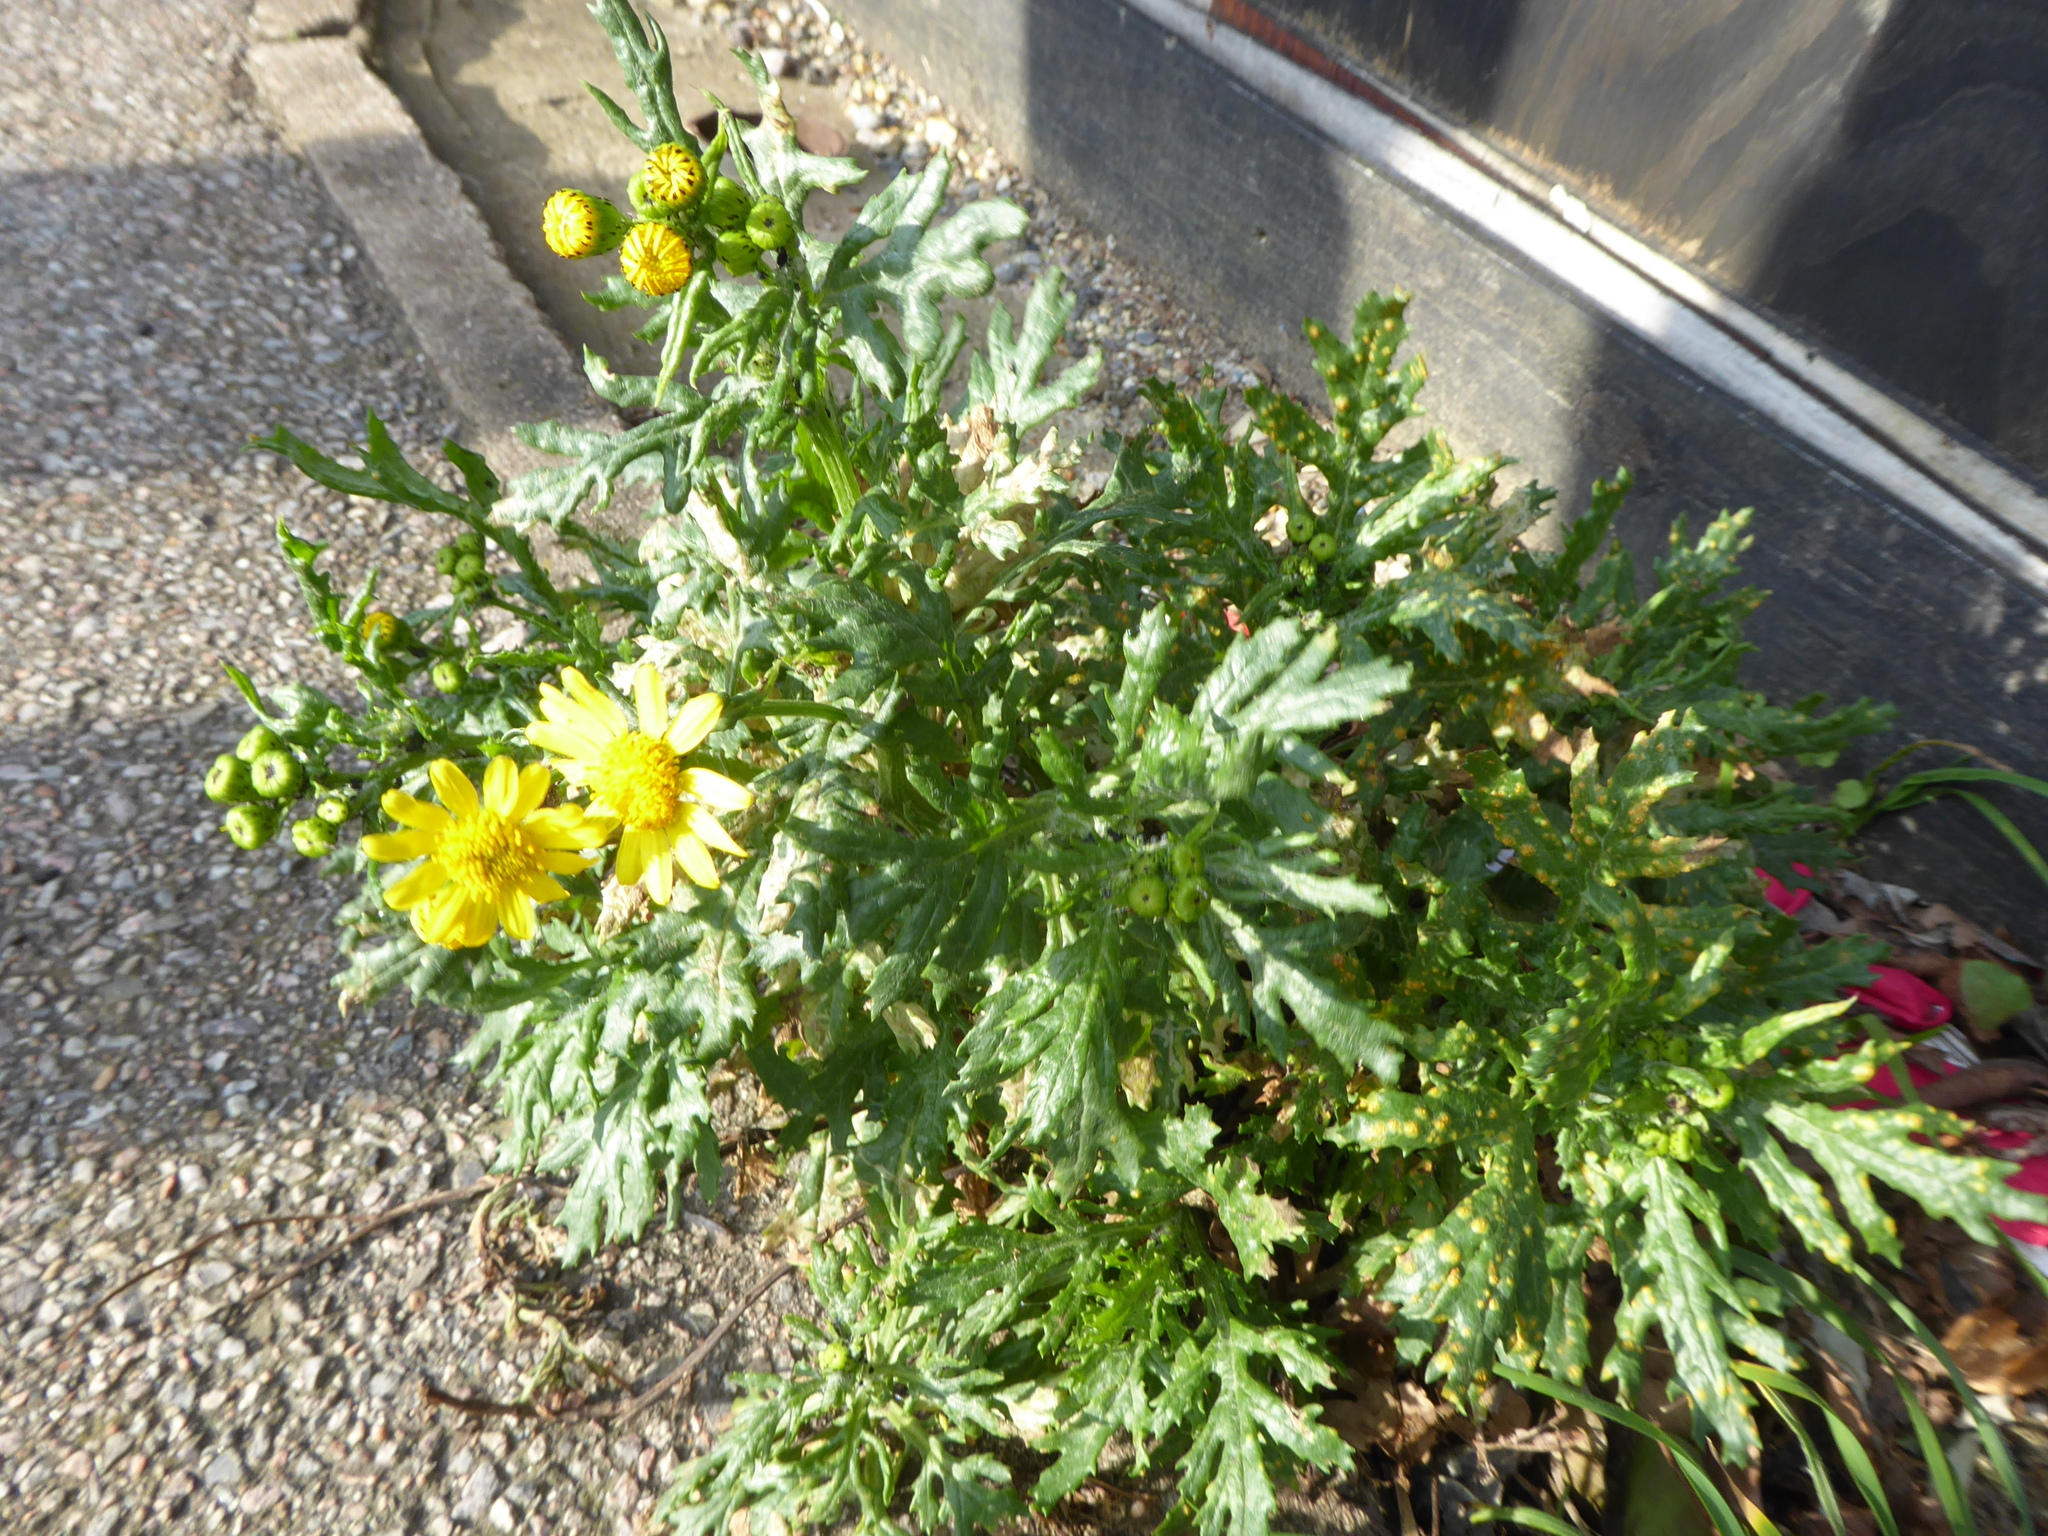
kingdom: Plantae
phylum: Tracheophyta
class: Magnoliopsida
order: Asterales
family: Asteraceae
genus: Senecio
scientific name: Senecio squalidus
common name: Oxford ragwort
